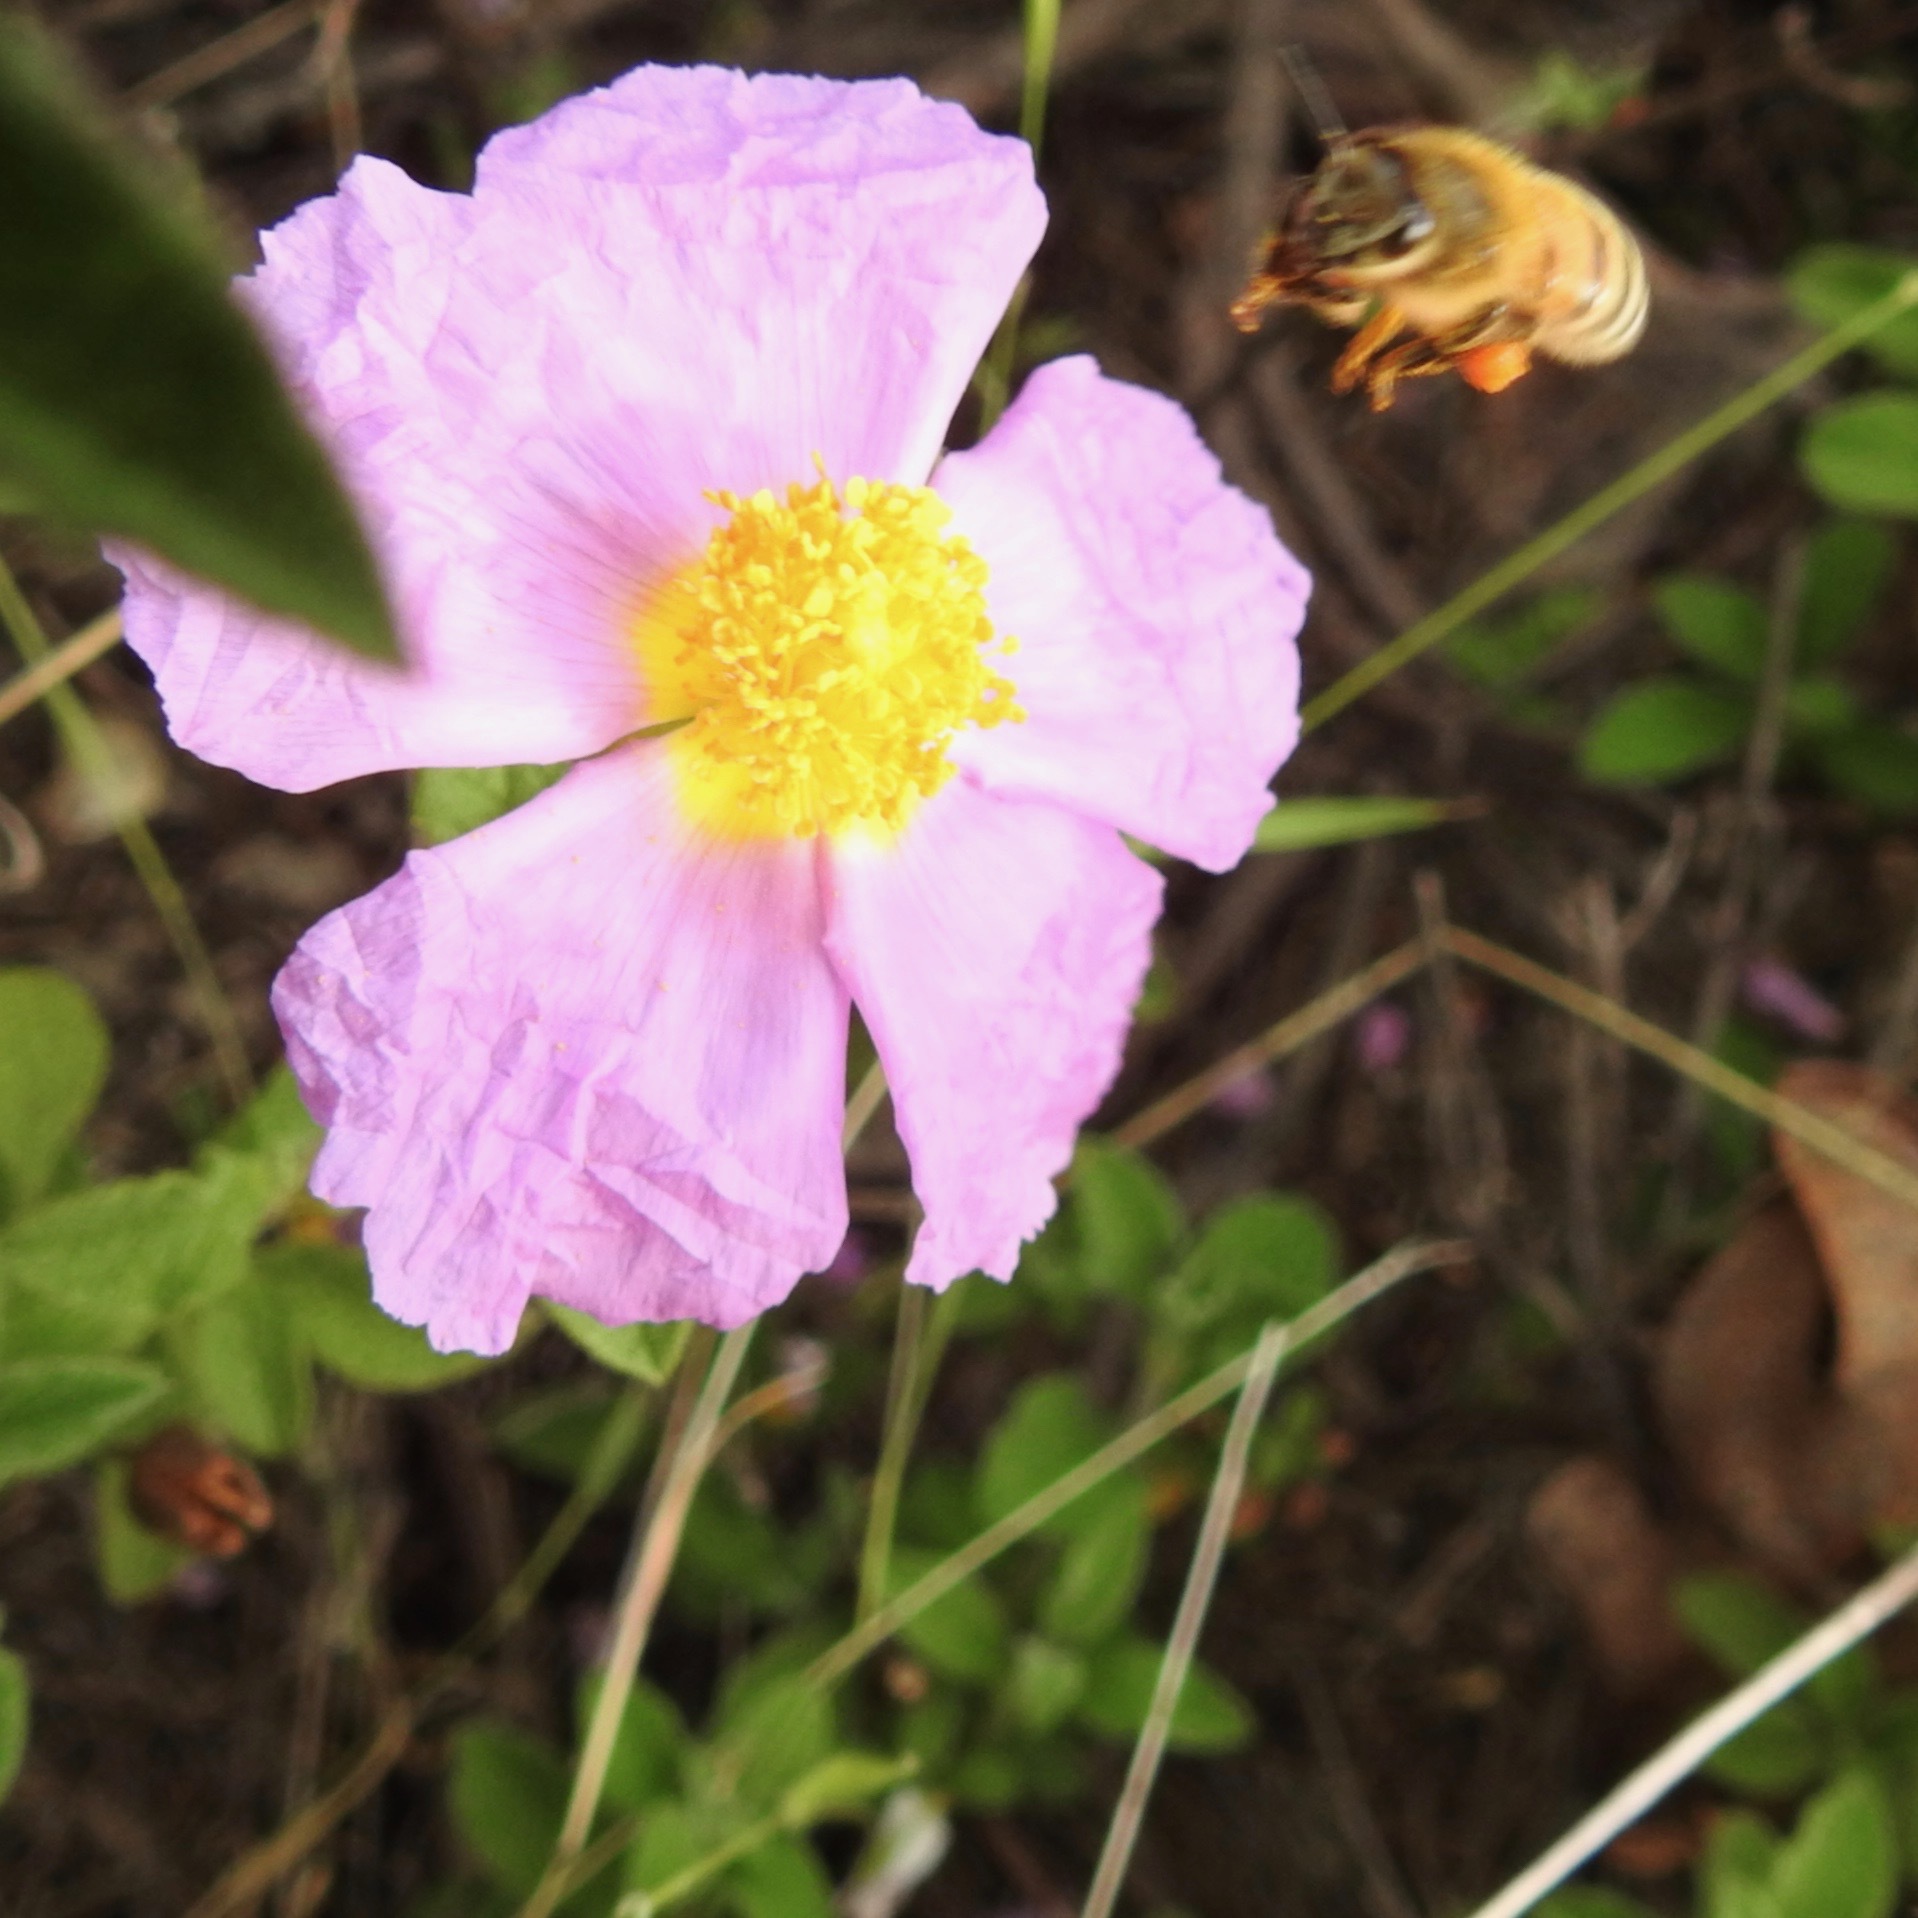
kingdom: Animalia
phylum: Arthropoda
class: Insecta
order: Hymenoptera
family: Apidae
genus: Apis
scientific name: Apis mellifera
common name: Honey bee
